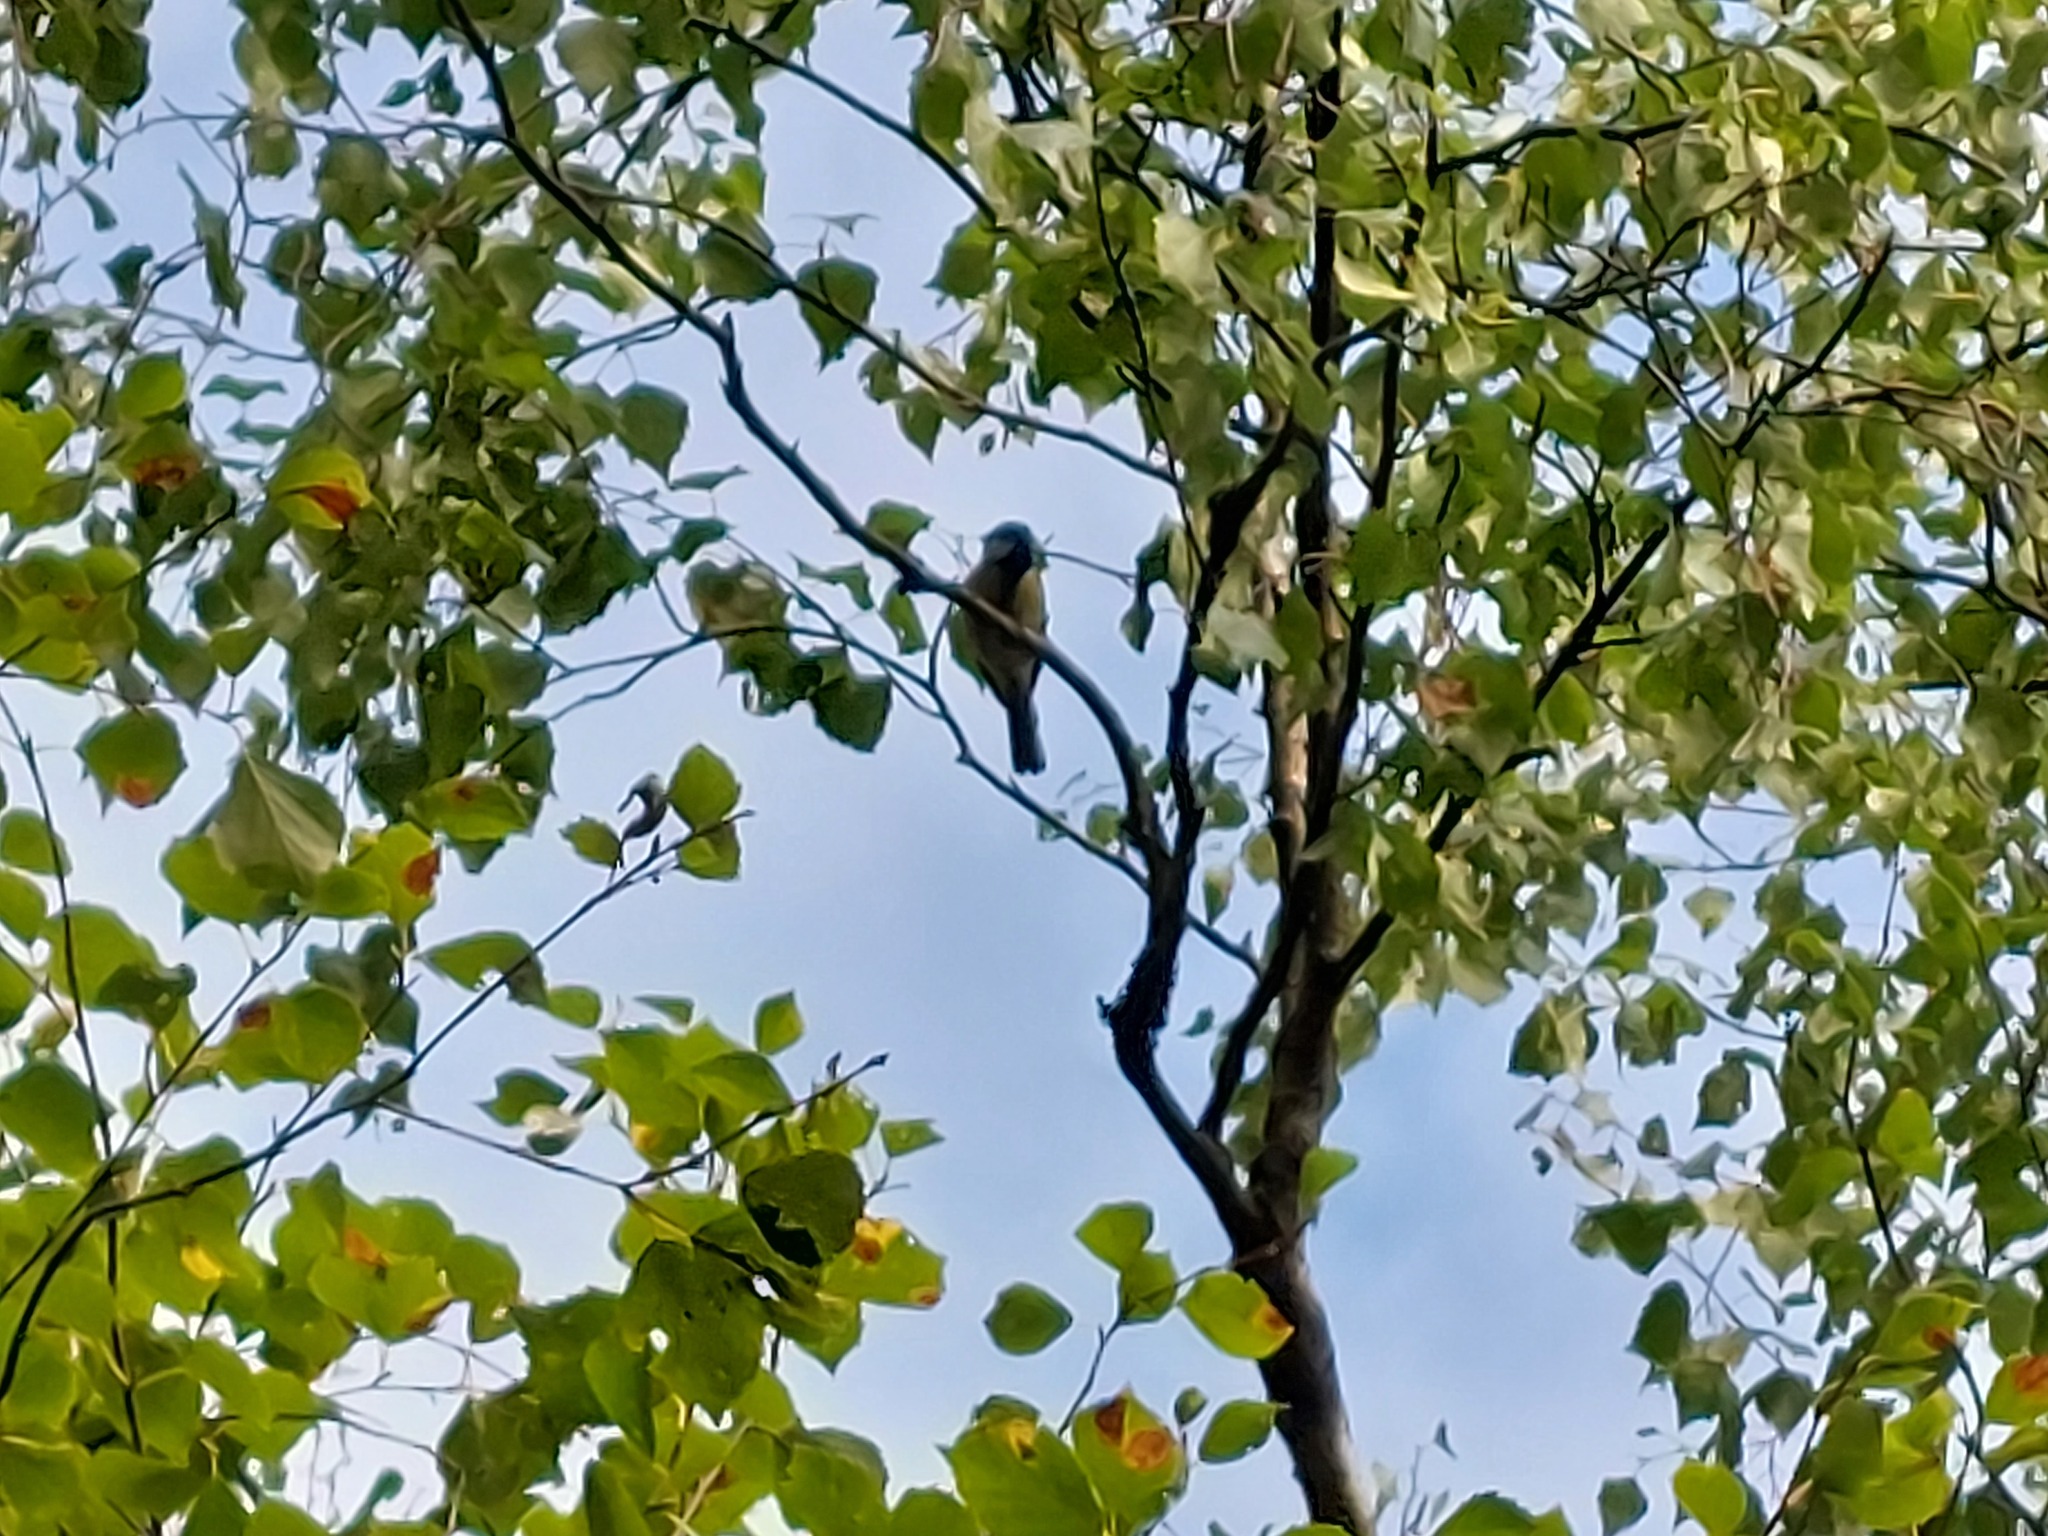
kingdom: Animalia
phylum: Chordata
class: Aves
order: Passeriformes
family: Paridae
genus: Parus
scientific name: Parus major
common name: Great tit
